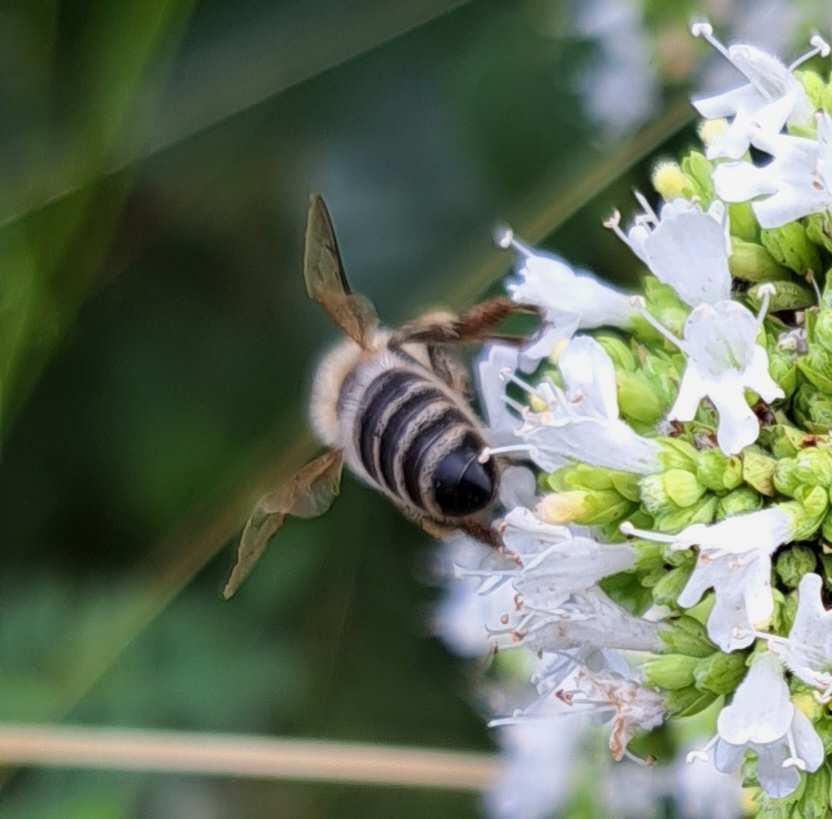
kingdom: Animalia
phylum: Arthropoda
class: Insecta
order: Hymenoptera
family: Apidae
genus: Apis
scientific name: Apis mellifera
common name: Honey bee
